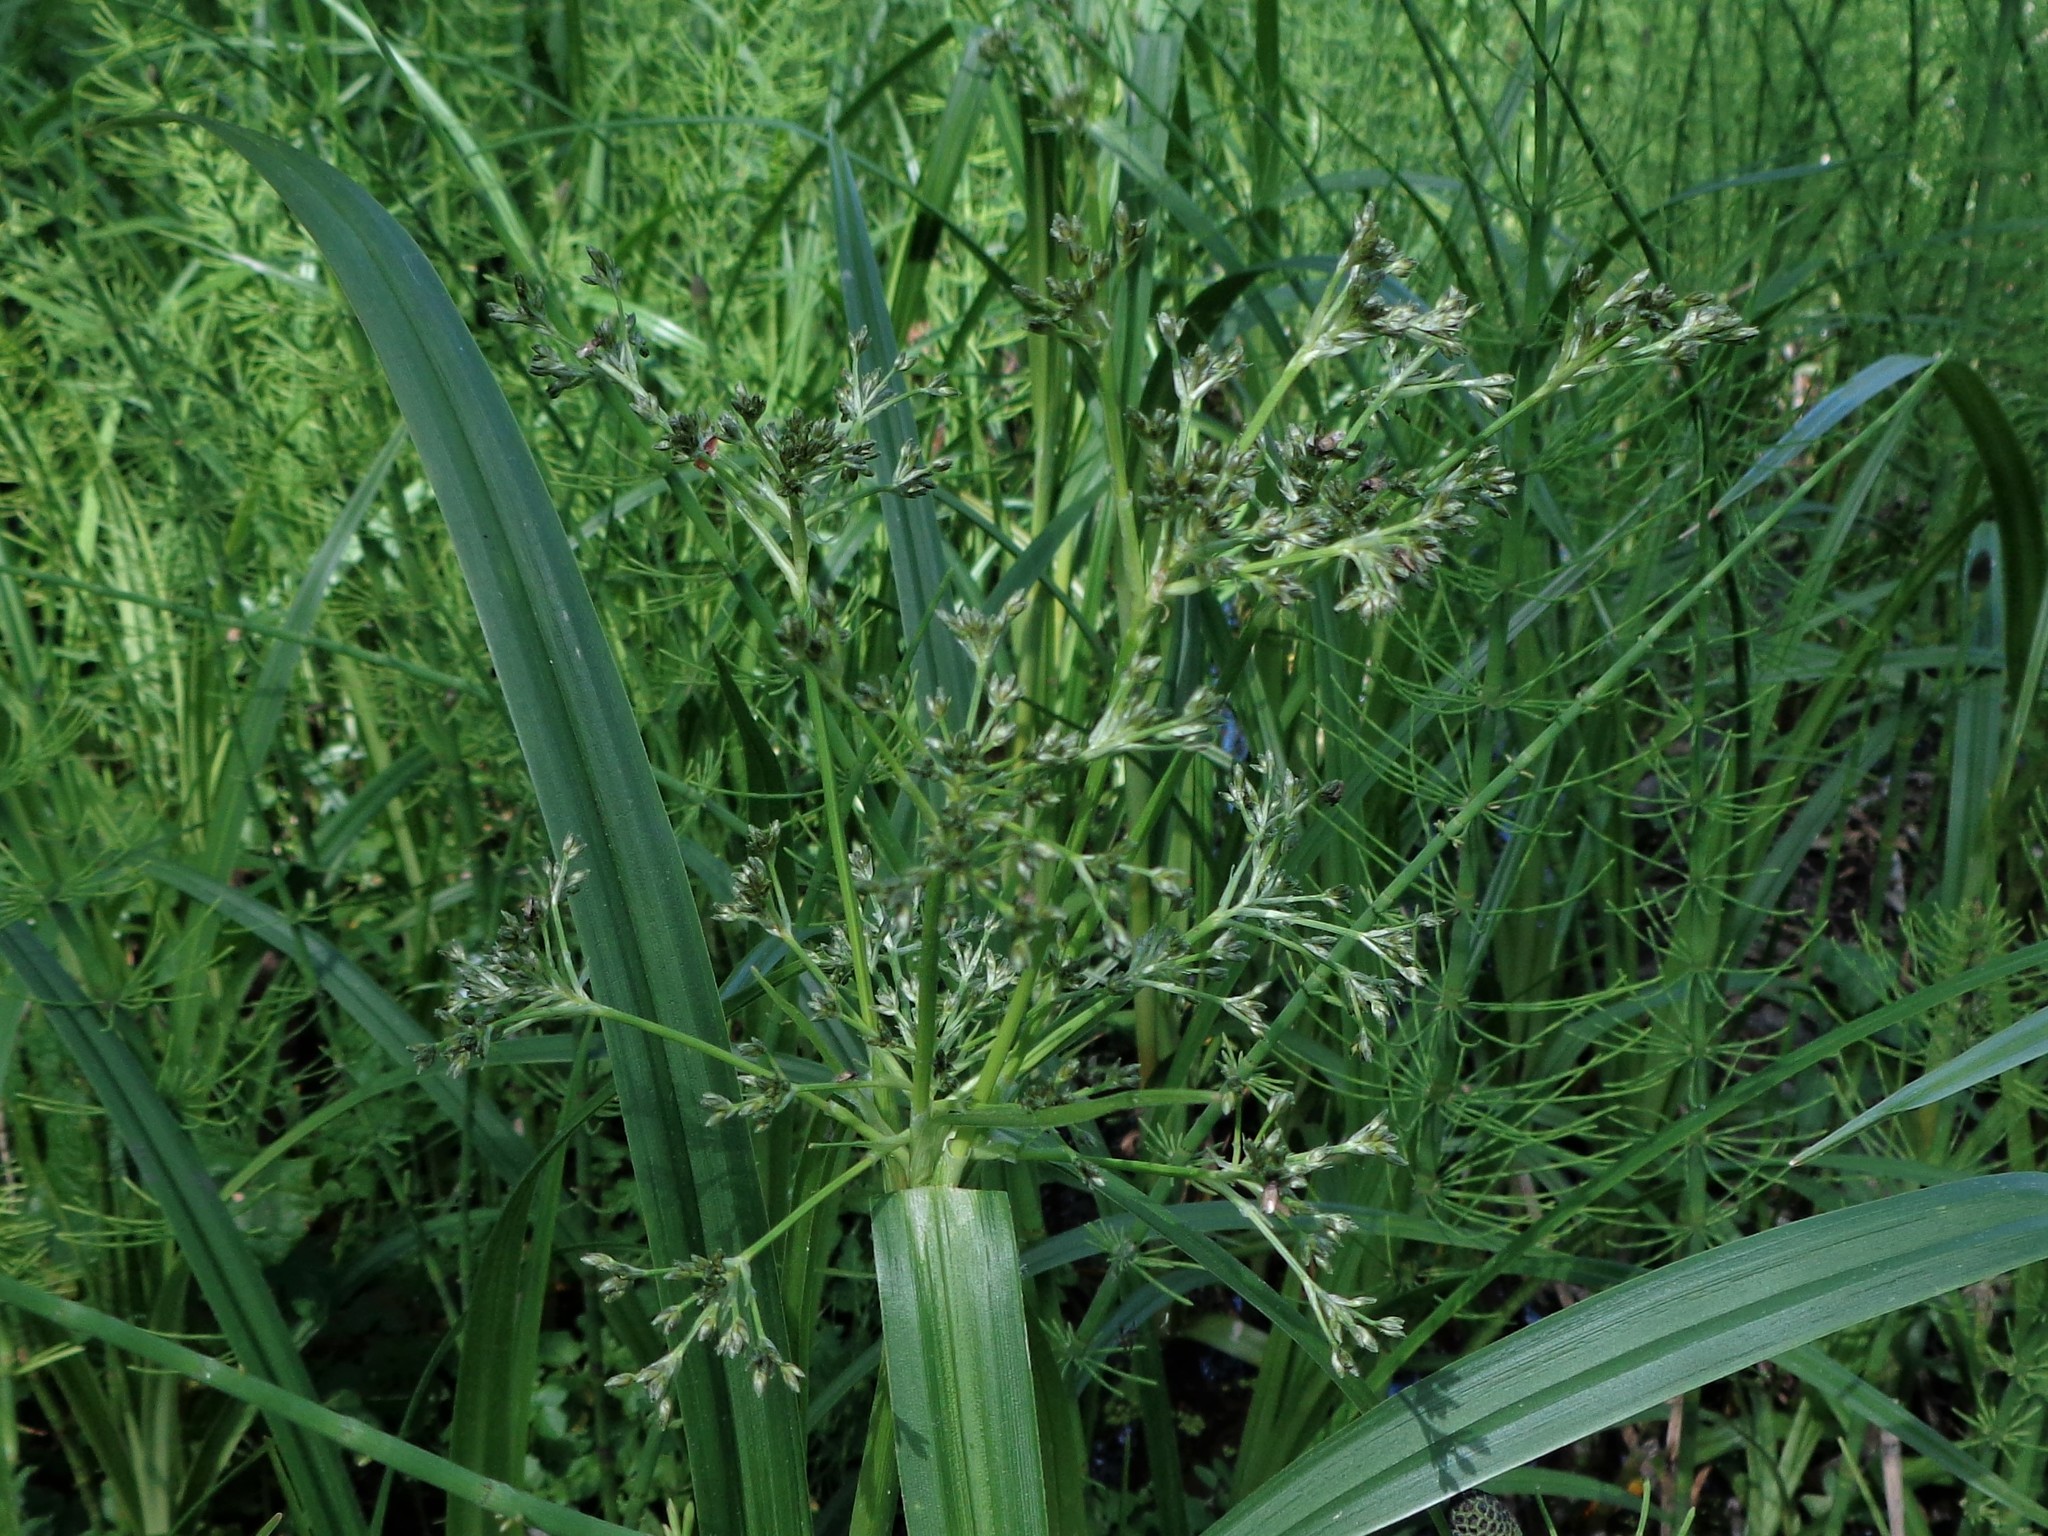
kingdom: Plantae
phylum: Tracheophyta
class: Liliopsida
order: Poales
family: Cyperaceae
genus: Scirpus
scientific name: Scirpus sylvaticus
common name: Wood club-rush
